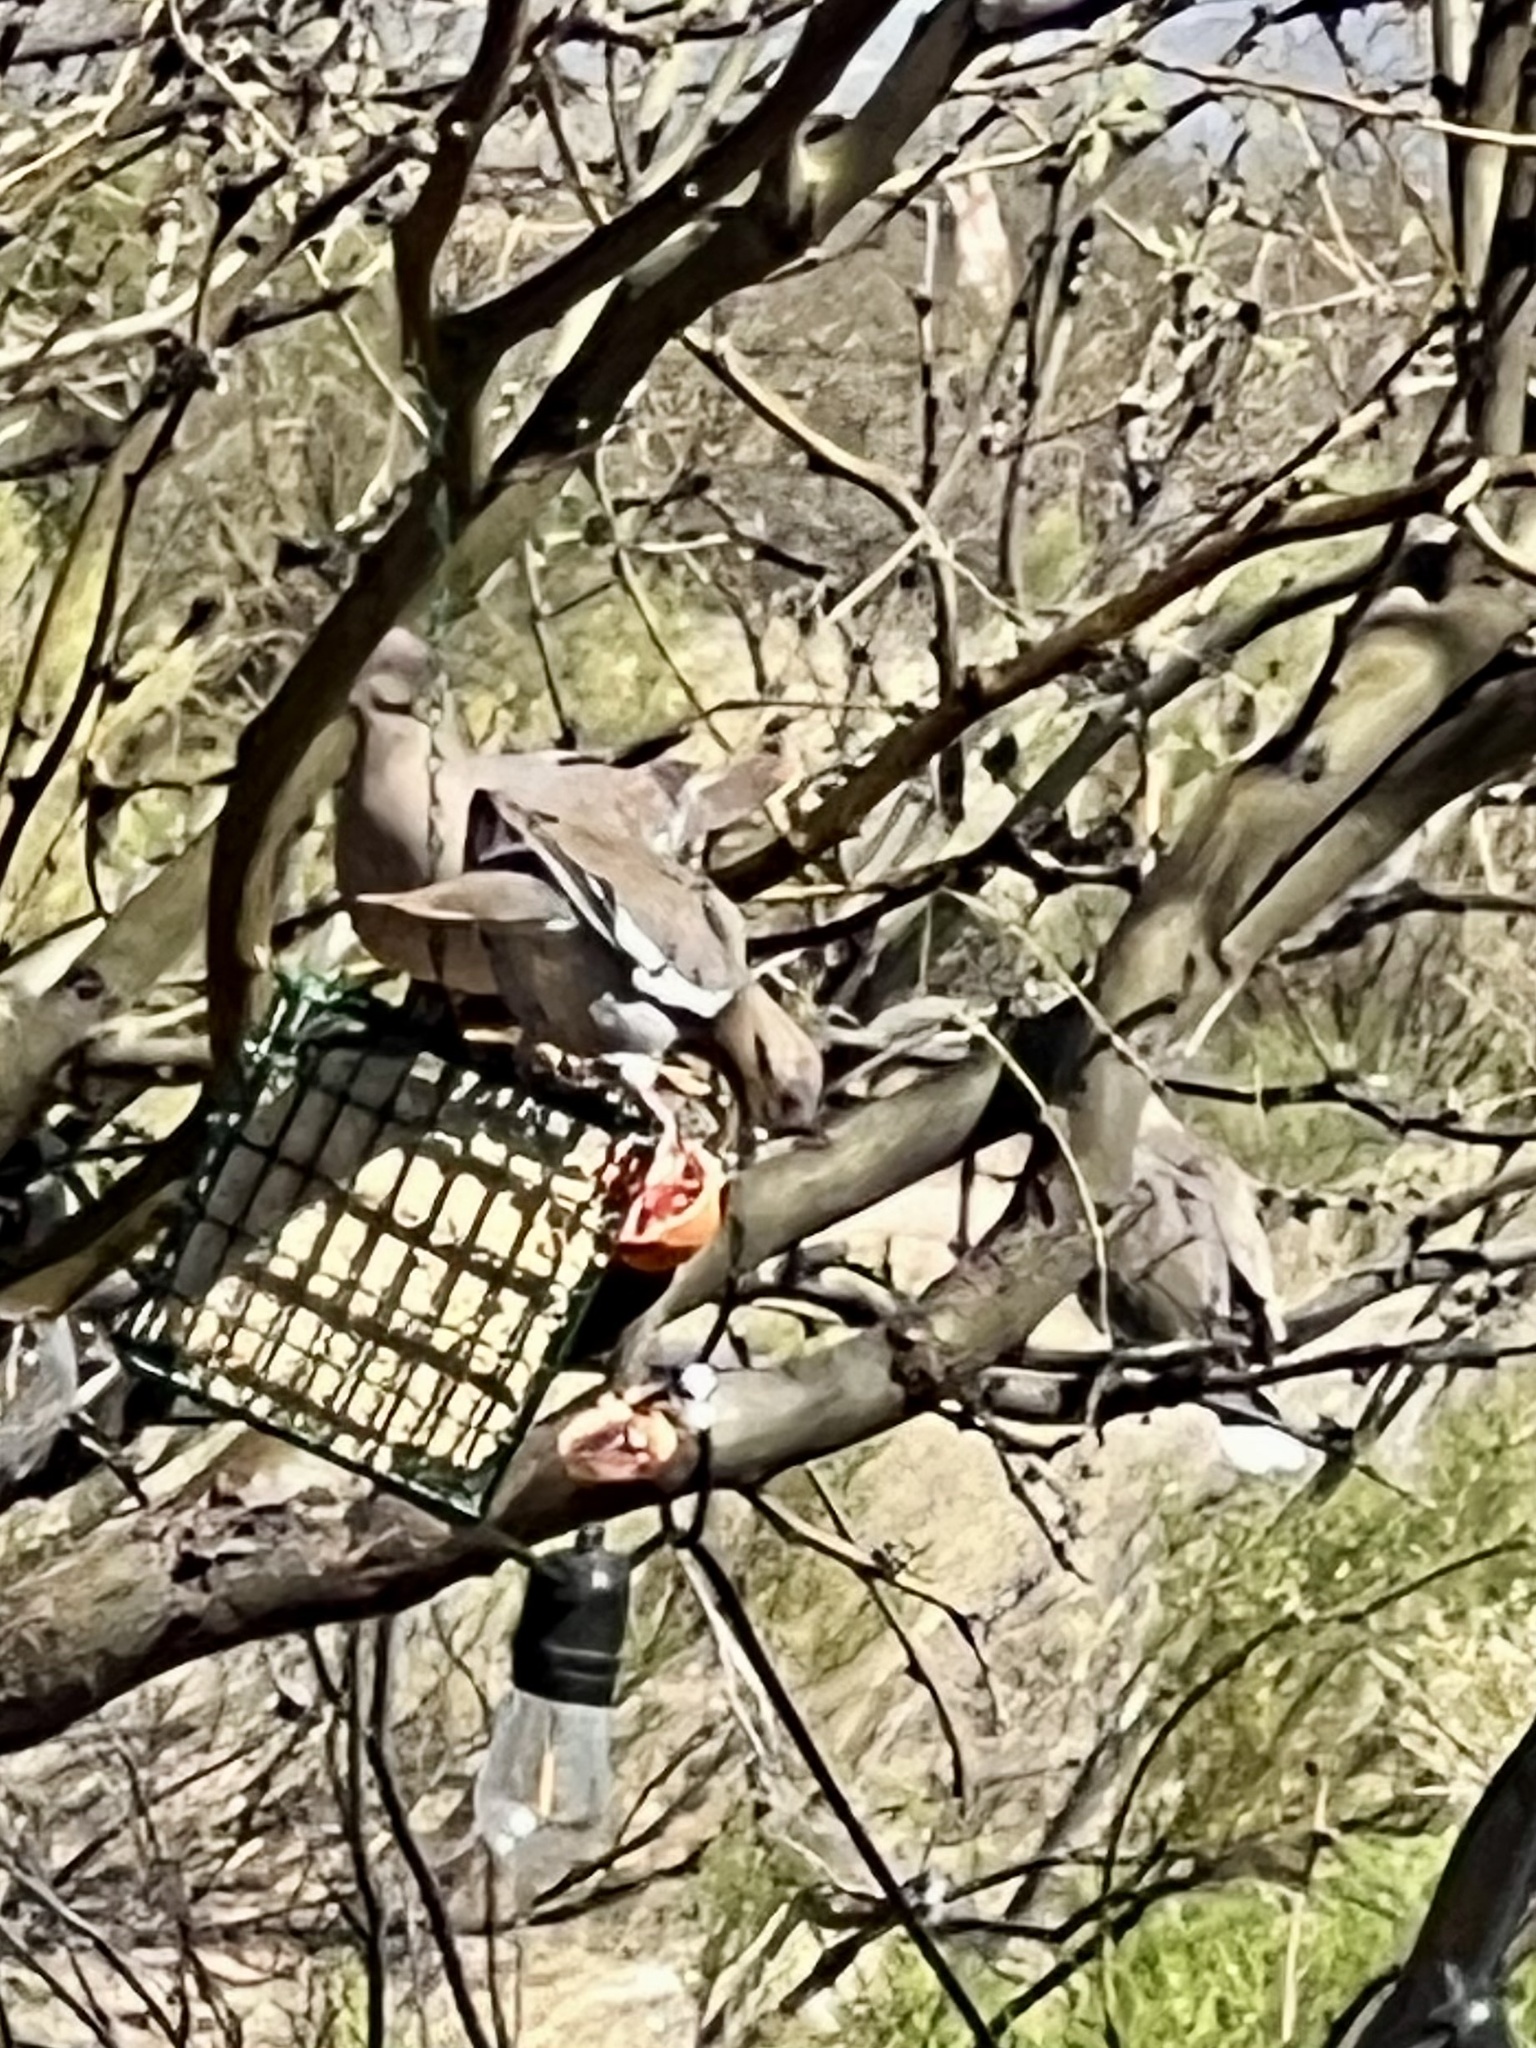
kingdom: Animalia
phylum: Chordata
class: Aves
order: Columbiformes
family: Columbidae
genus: Zenaida
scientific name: Zenaida asiatica
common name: White-winged dove
